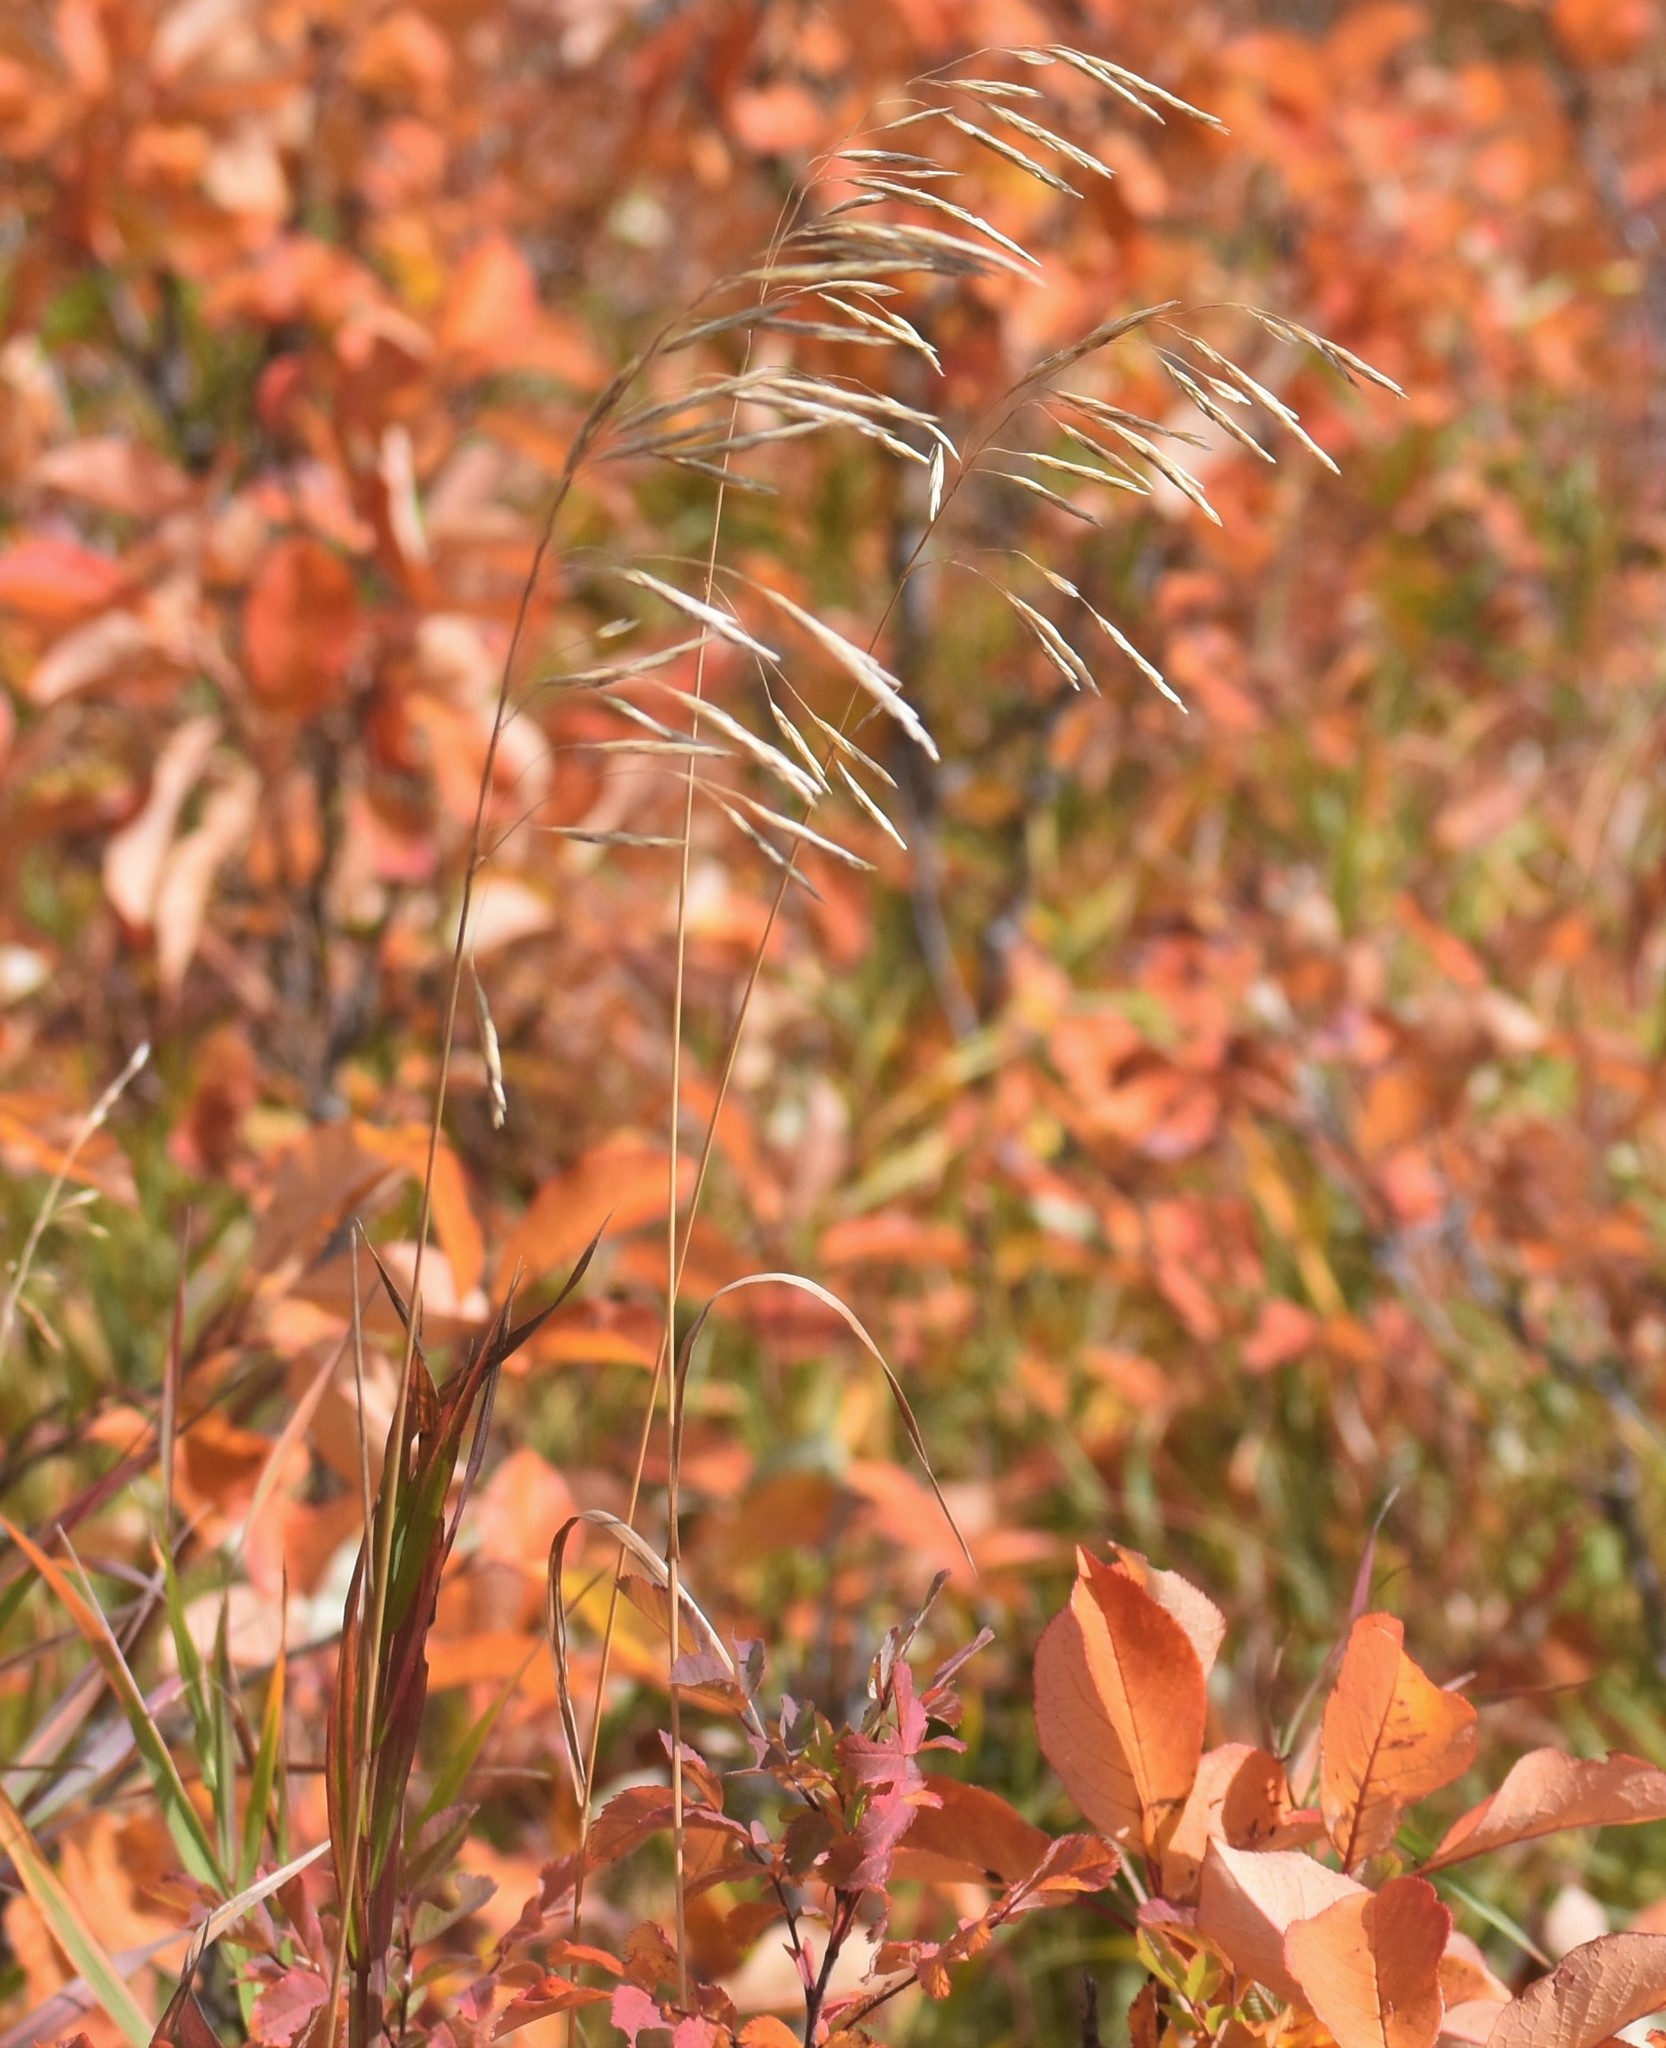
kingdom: Plantae
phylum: Tracheophyta
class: Liliopsida
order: Poales
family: Poaceae
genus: Bromus
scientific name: Bromus inermis
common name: Smooth brome
